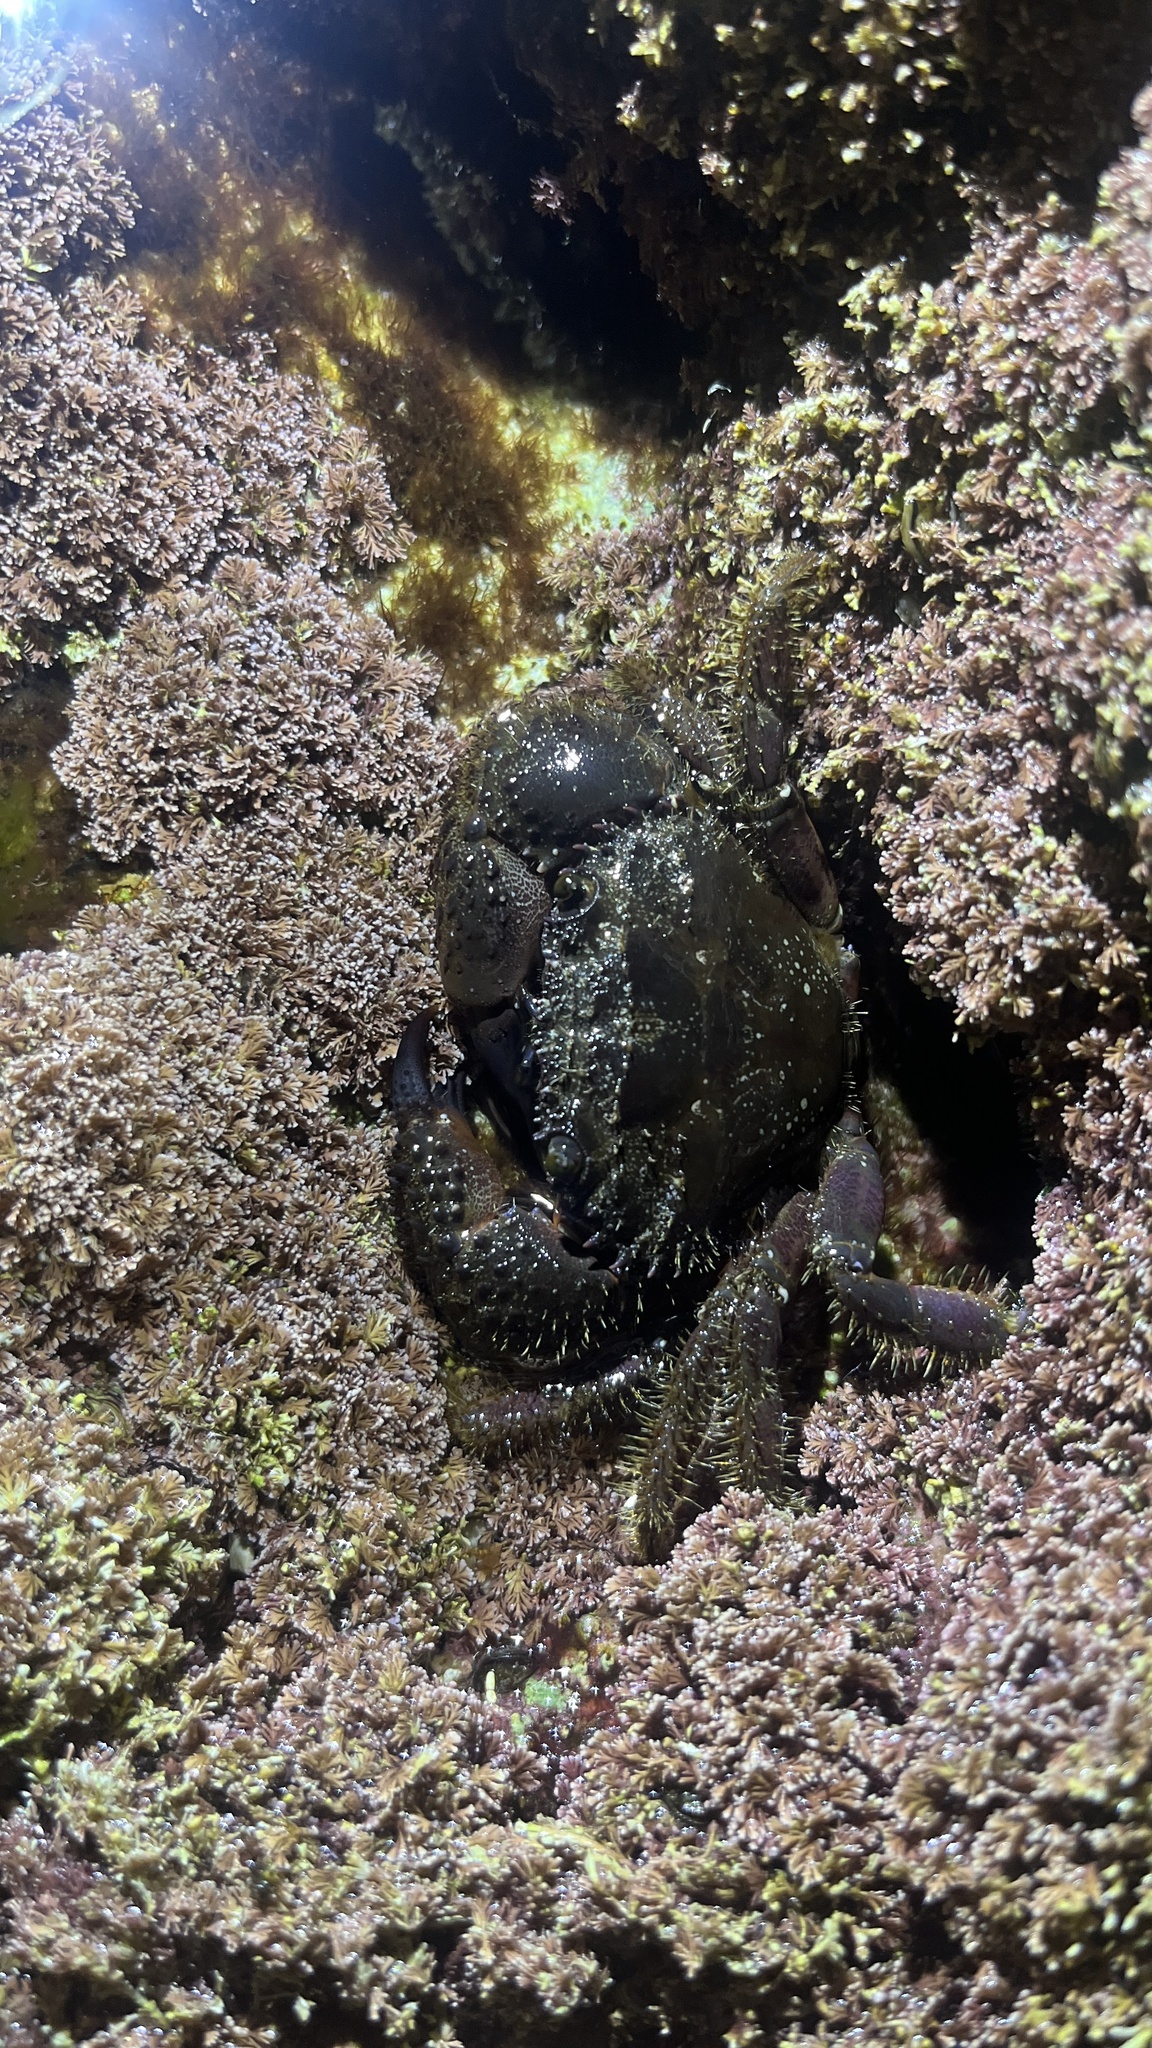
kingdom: Animalia
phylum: Arthropoda
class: Malacostraca
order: Decapoda
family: Eriphiidae
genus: Eriphia
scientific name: Eriphia verrucosa
